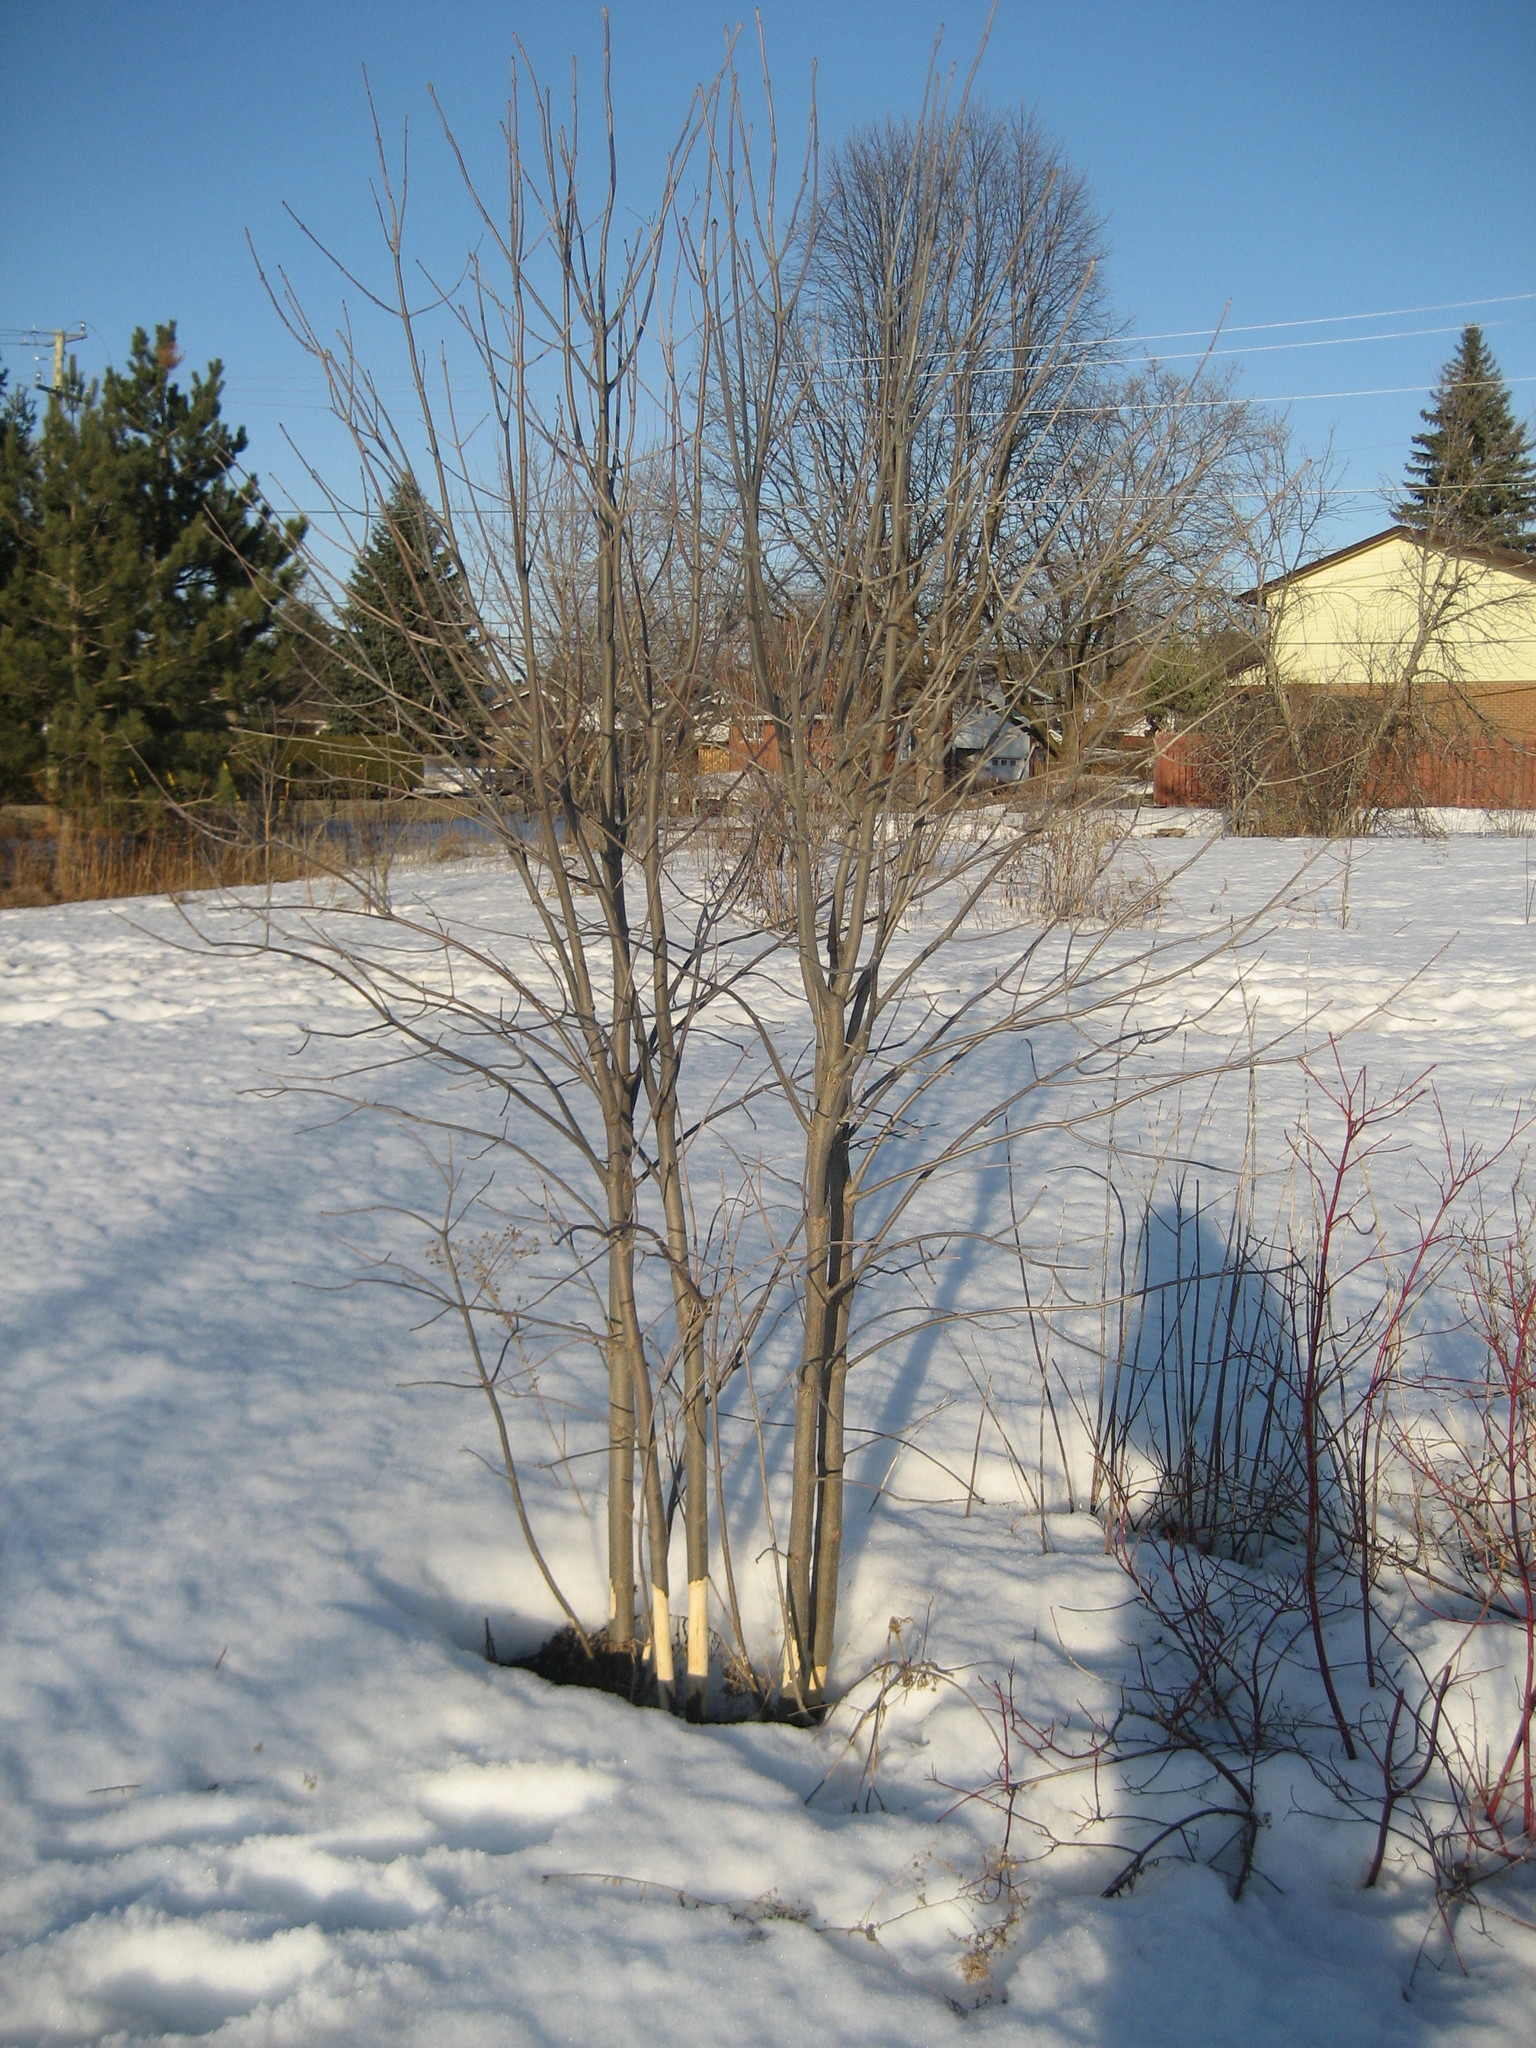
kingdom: Plantae
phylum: Tracheophyta
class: Magnoliopsida
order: Lamiales
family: Oleaceae
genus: Fraxinus
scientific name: Fraxinus pennsylvanica
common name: Green ash
